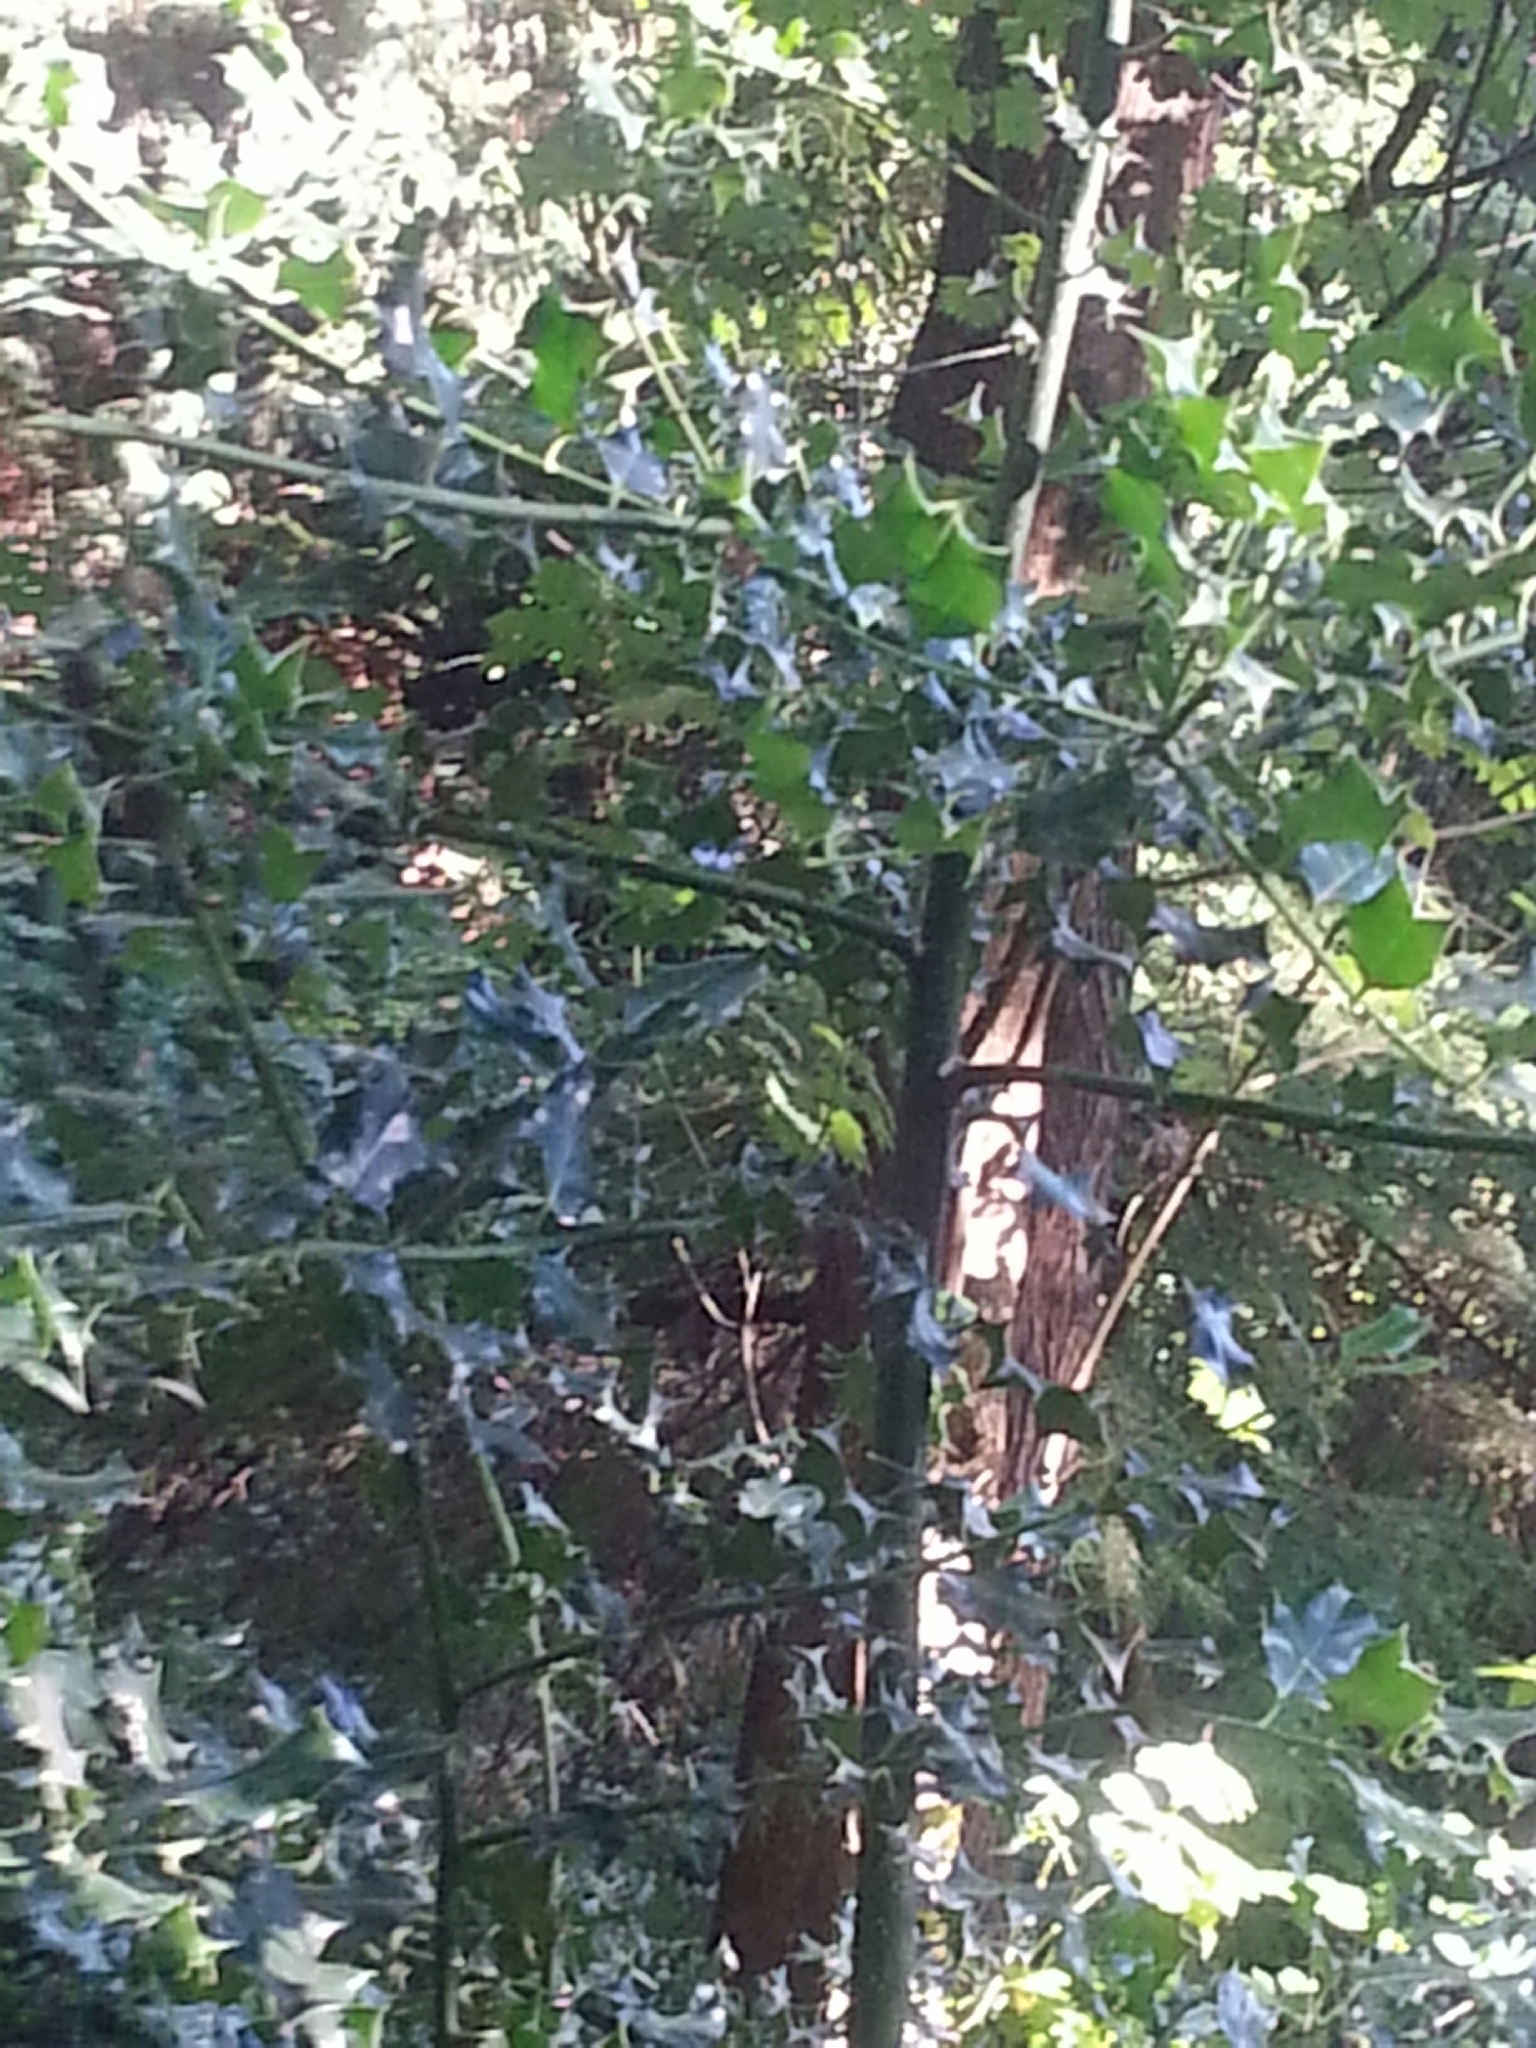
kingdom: Plantae
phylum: Tracheophyta
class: Magnoliopsida
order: Aquifoliales
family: Aquifoliaceae
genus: Ilex
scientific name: Ilex aquifolium
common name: English holly
